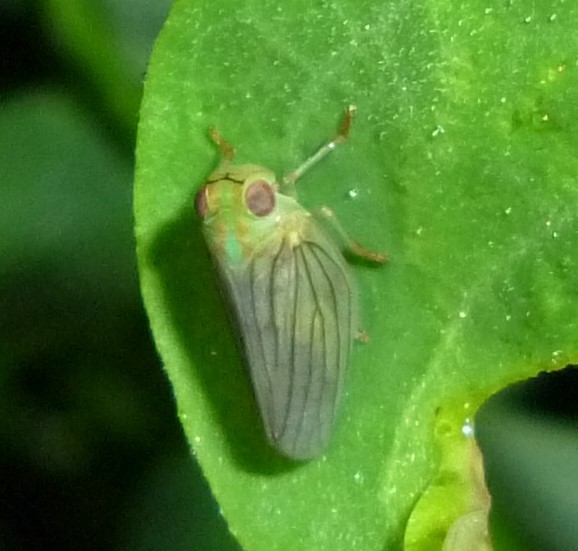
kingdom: Animalia
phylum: Arthropoda
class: Insecta
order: Hemiptera
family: Issidae
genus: Aplos
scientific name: Aplos simplex
